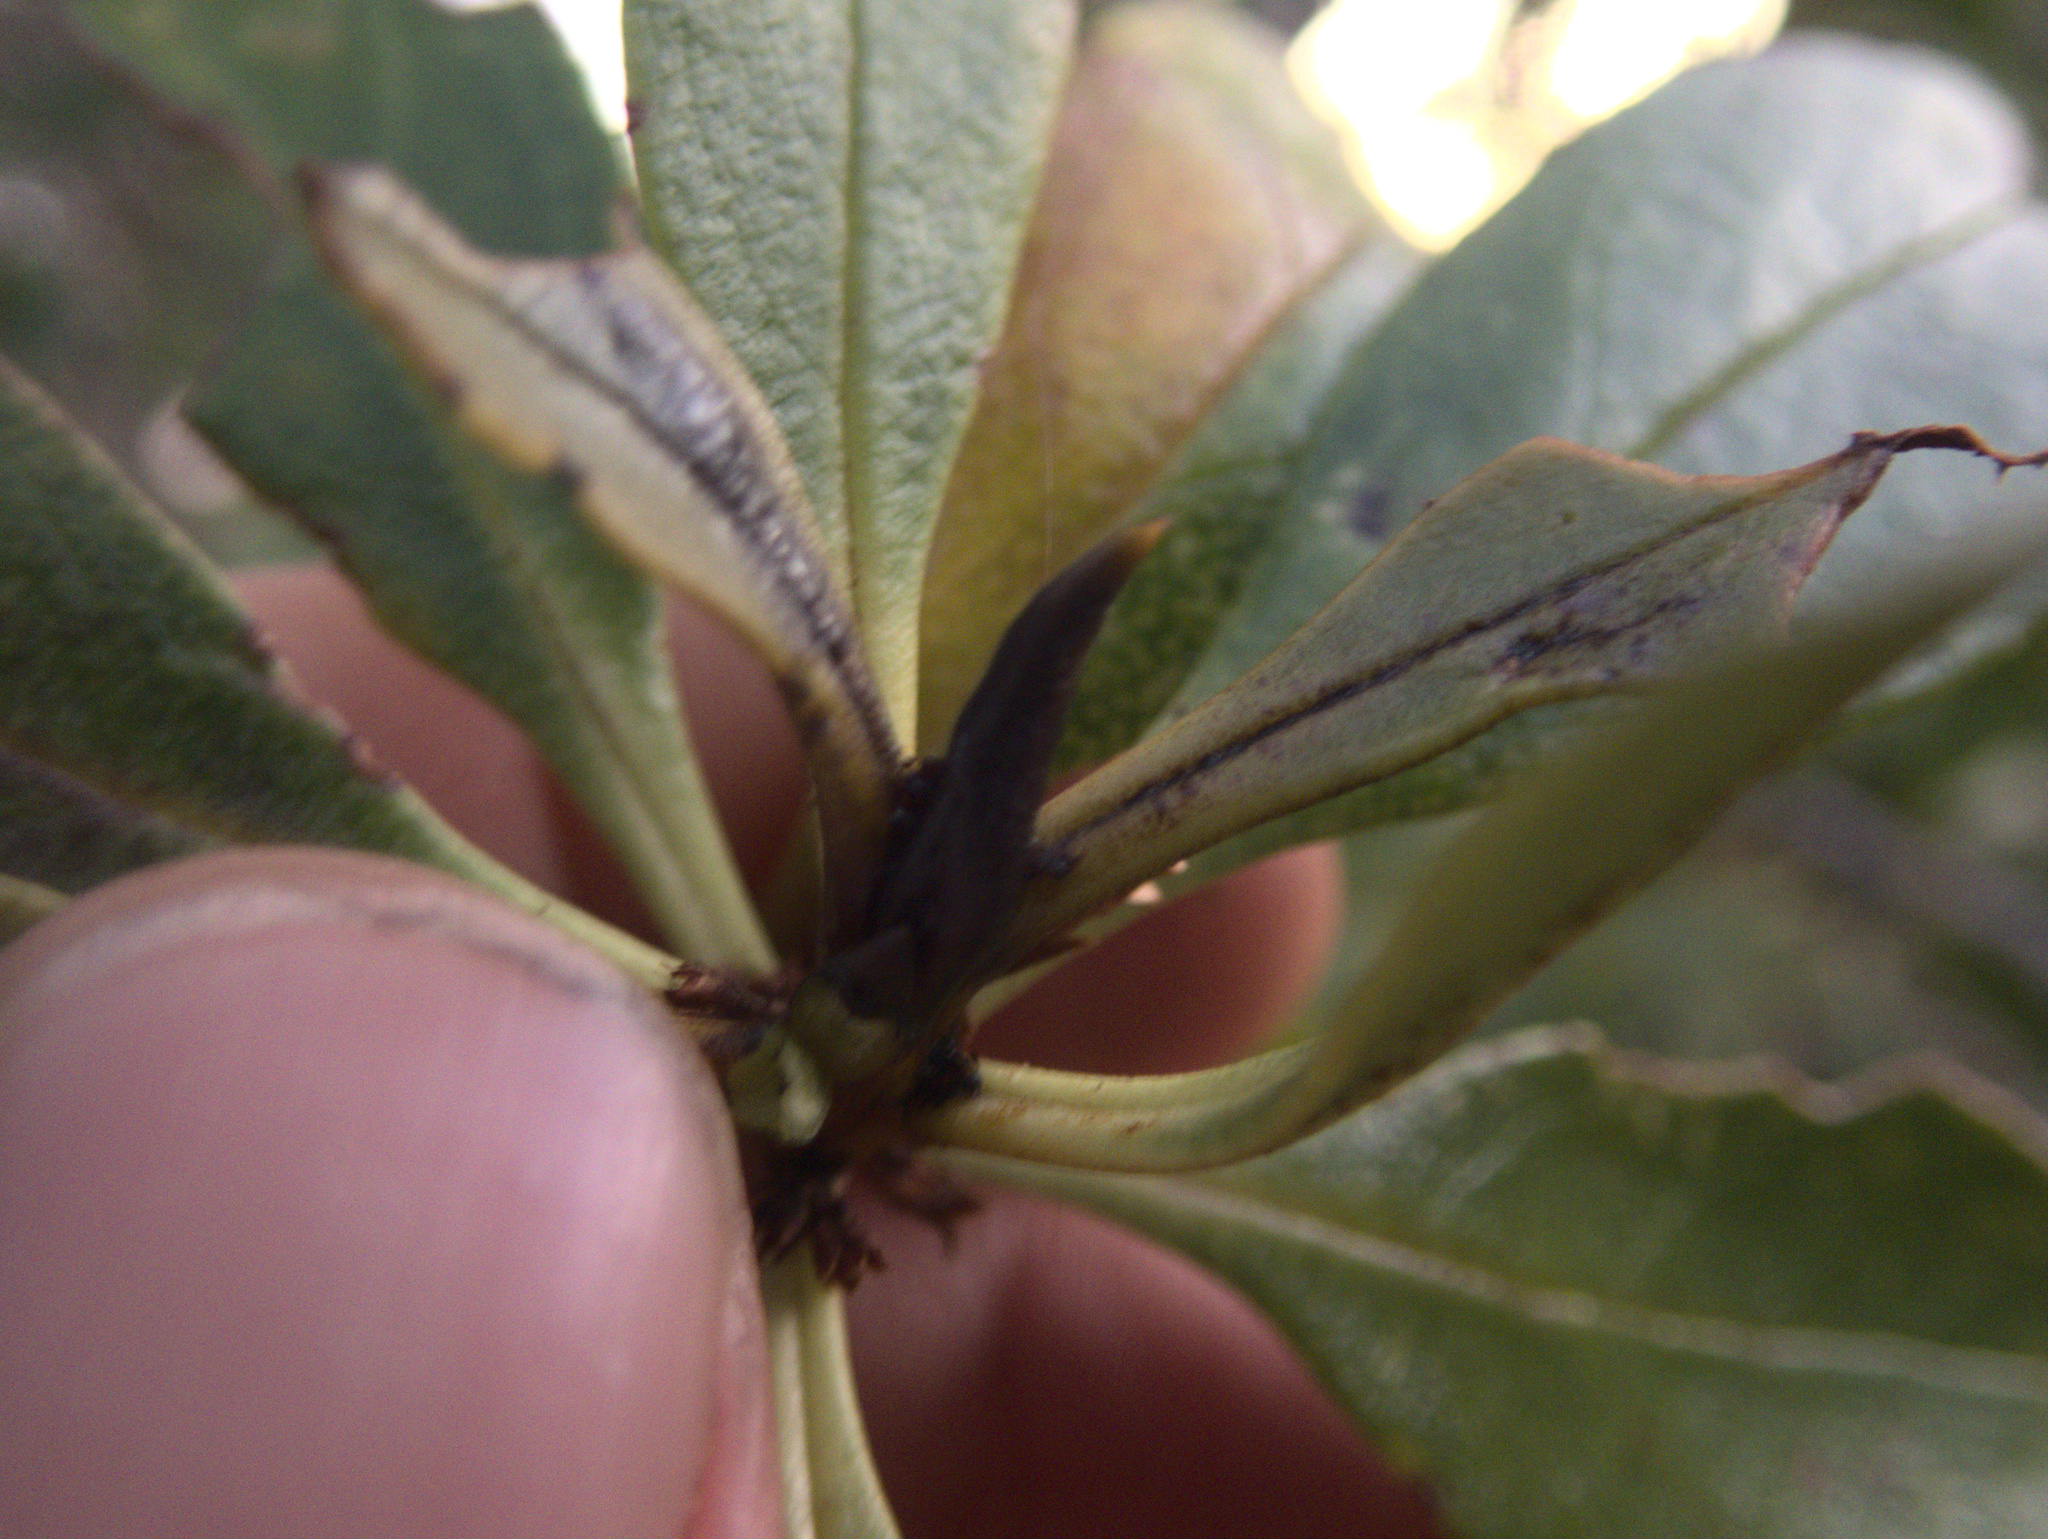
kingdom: Plantae
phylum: Tracheophyta
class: Magnoliopsida
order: Lamiales
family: Scrophulariaceae
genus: Myoporum
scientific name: Myoporum laetum
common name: Ngaio tree
